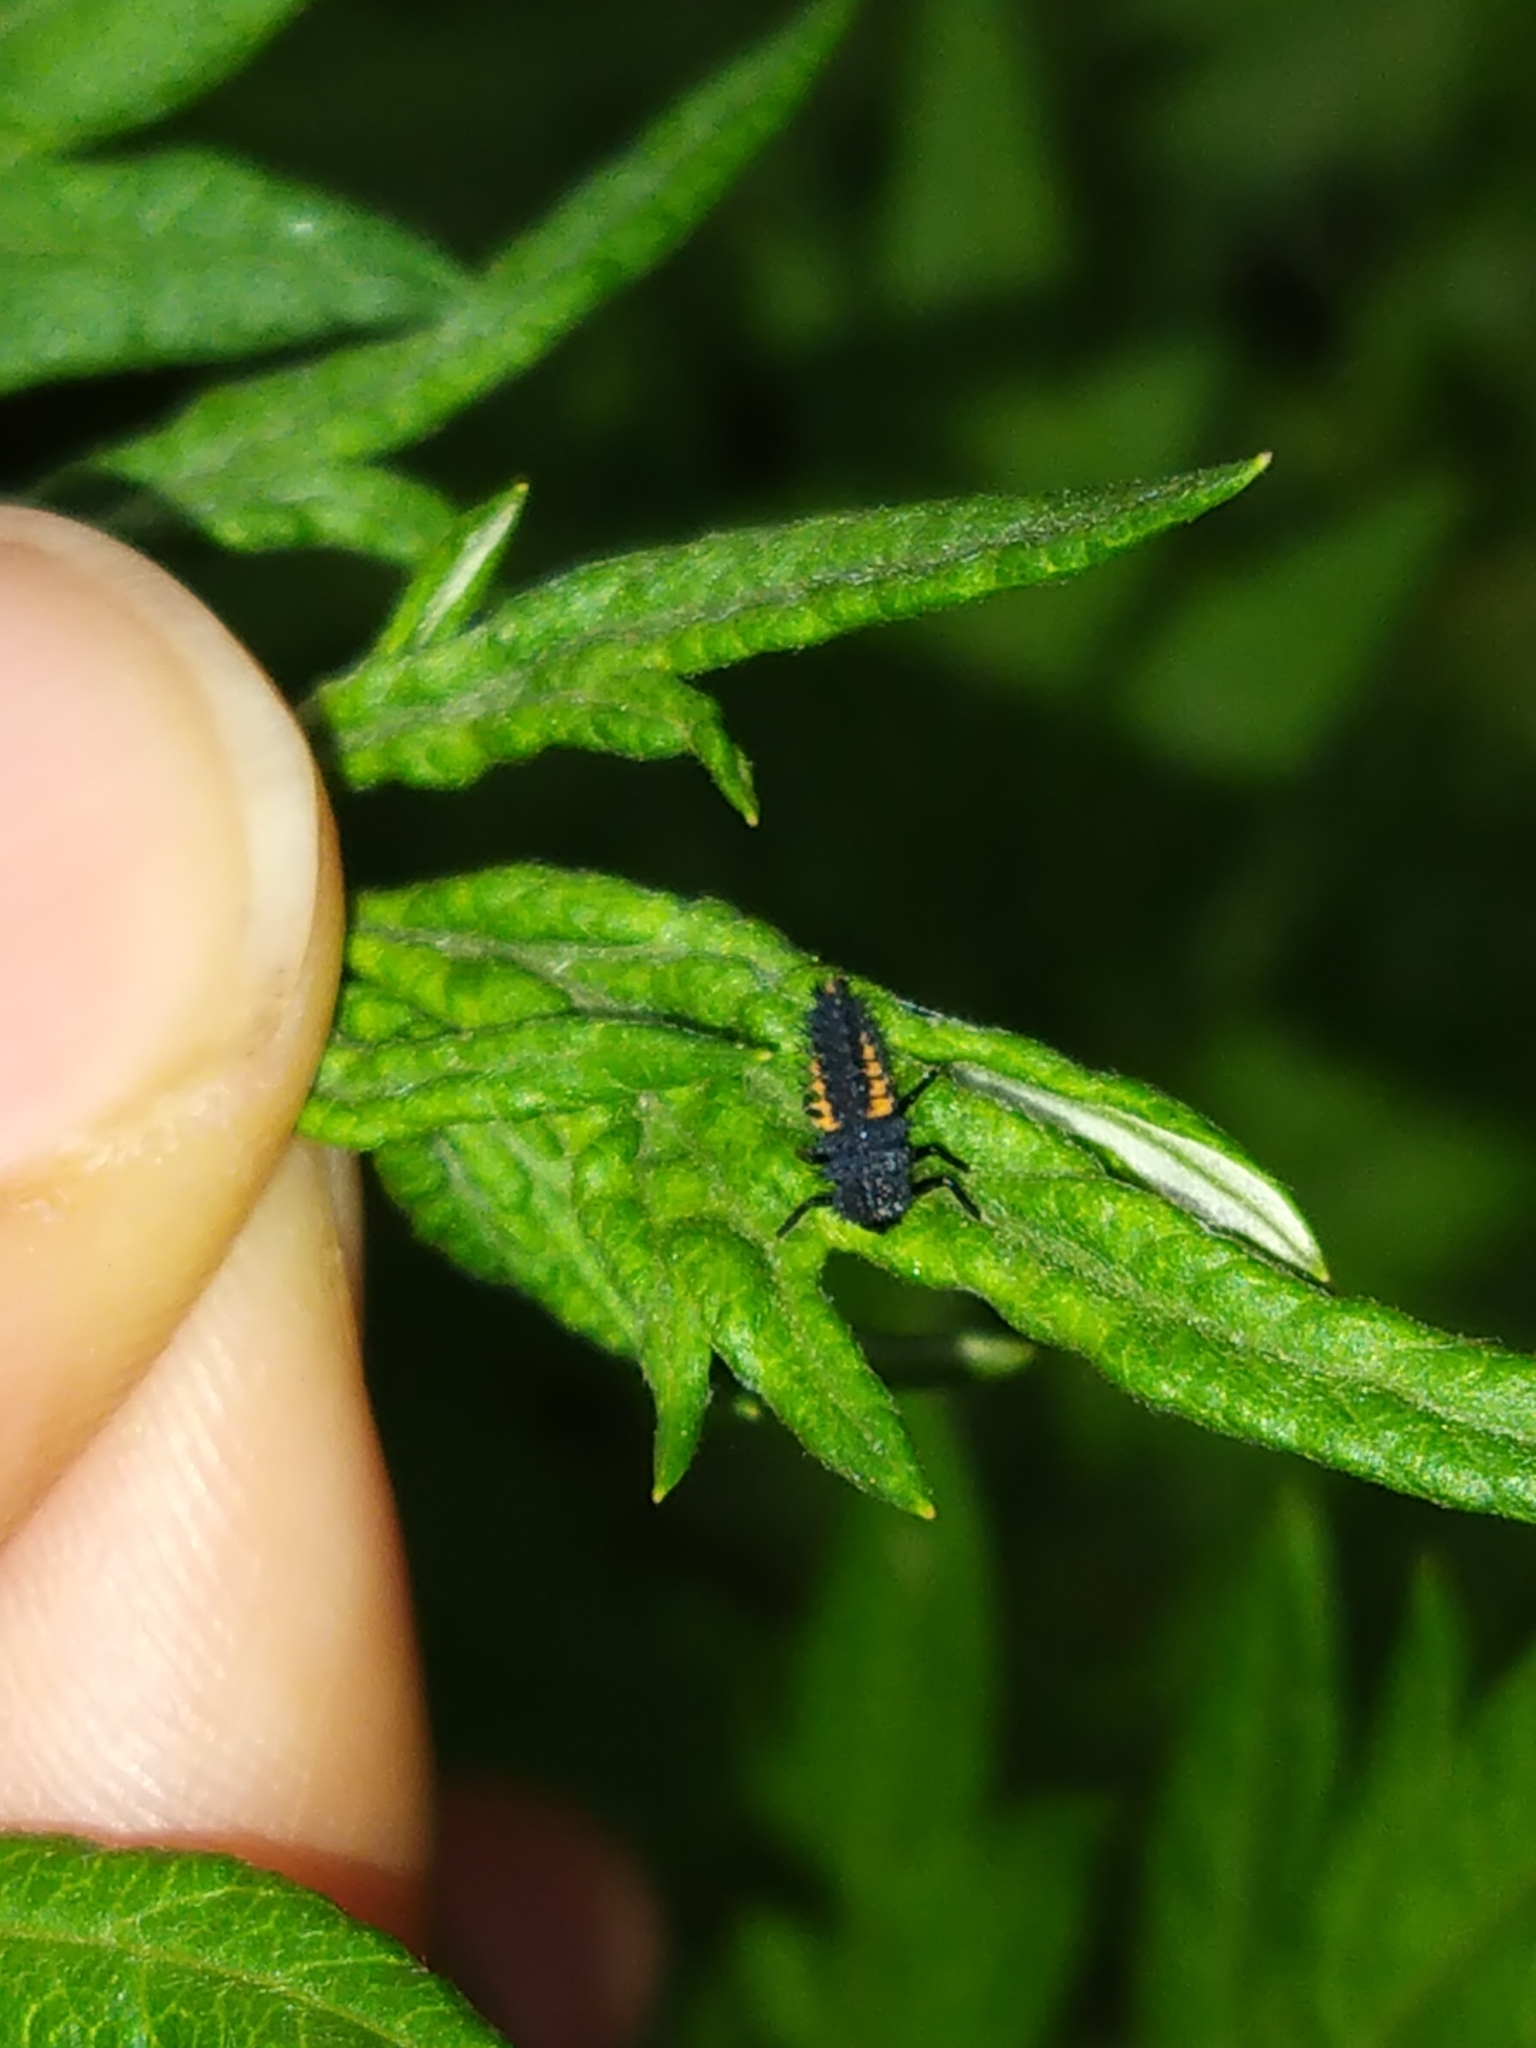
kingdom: Animalia
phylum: Arthropoda
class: Insecta
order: Coleoptera
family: Coccinellidae
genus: Harmonia
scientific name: Harmonia axyridis
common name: Harlequin ladybird
